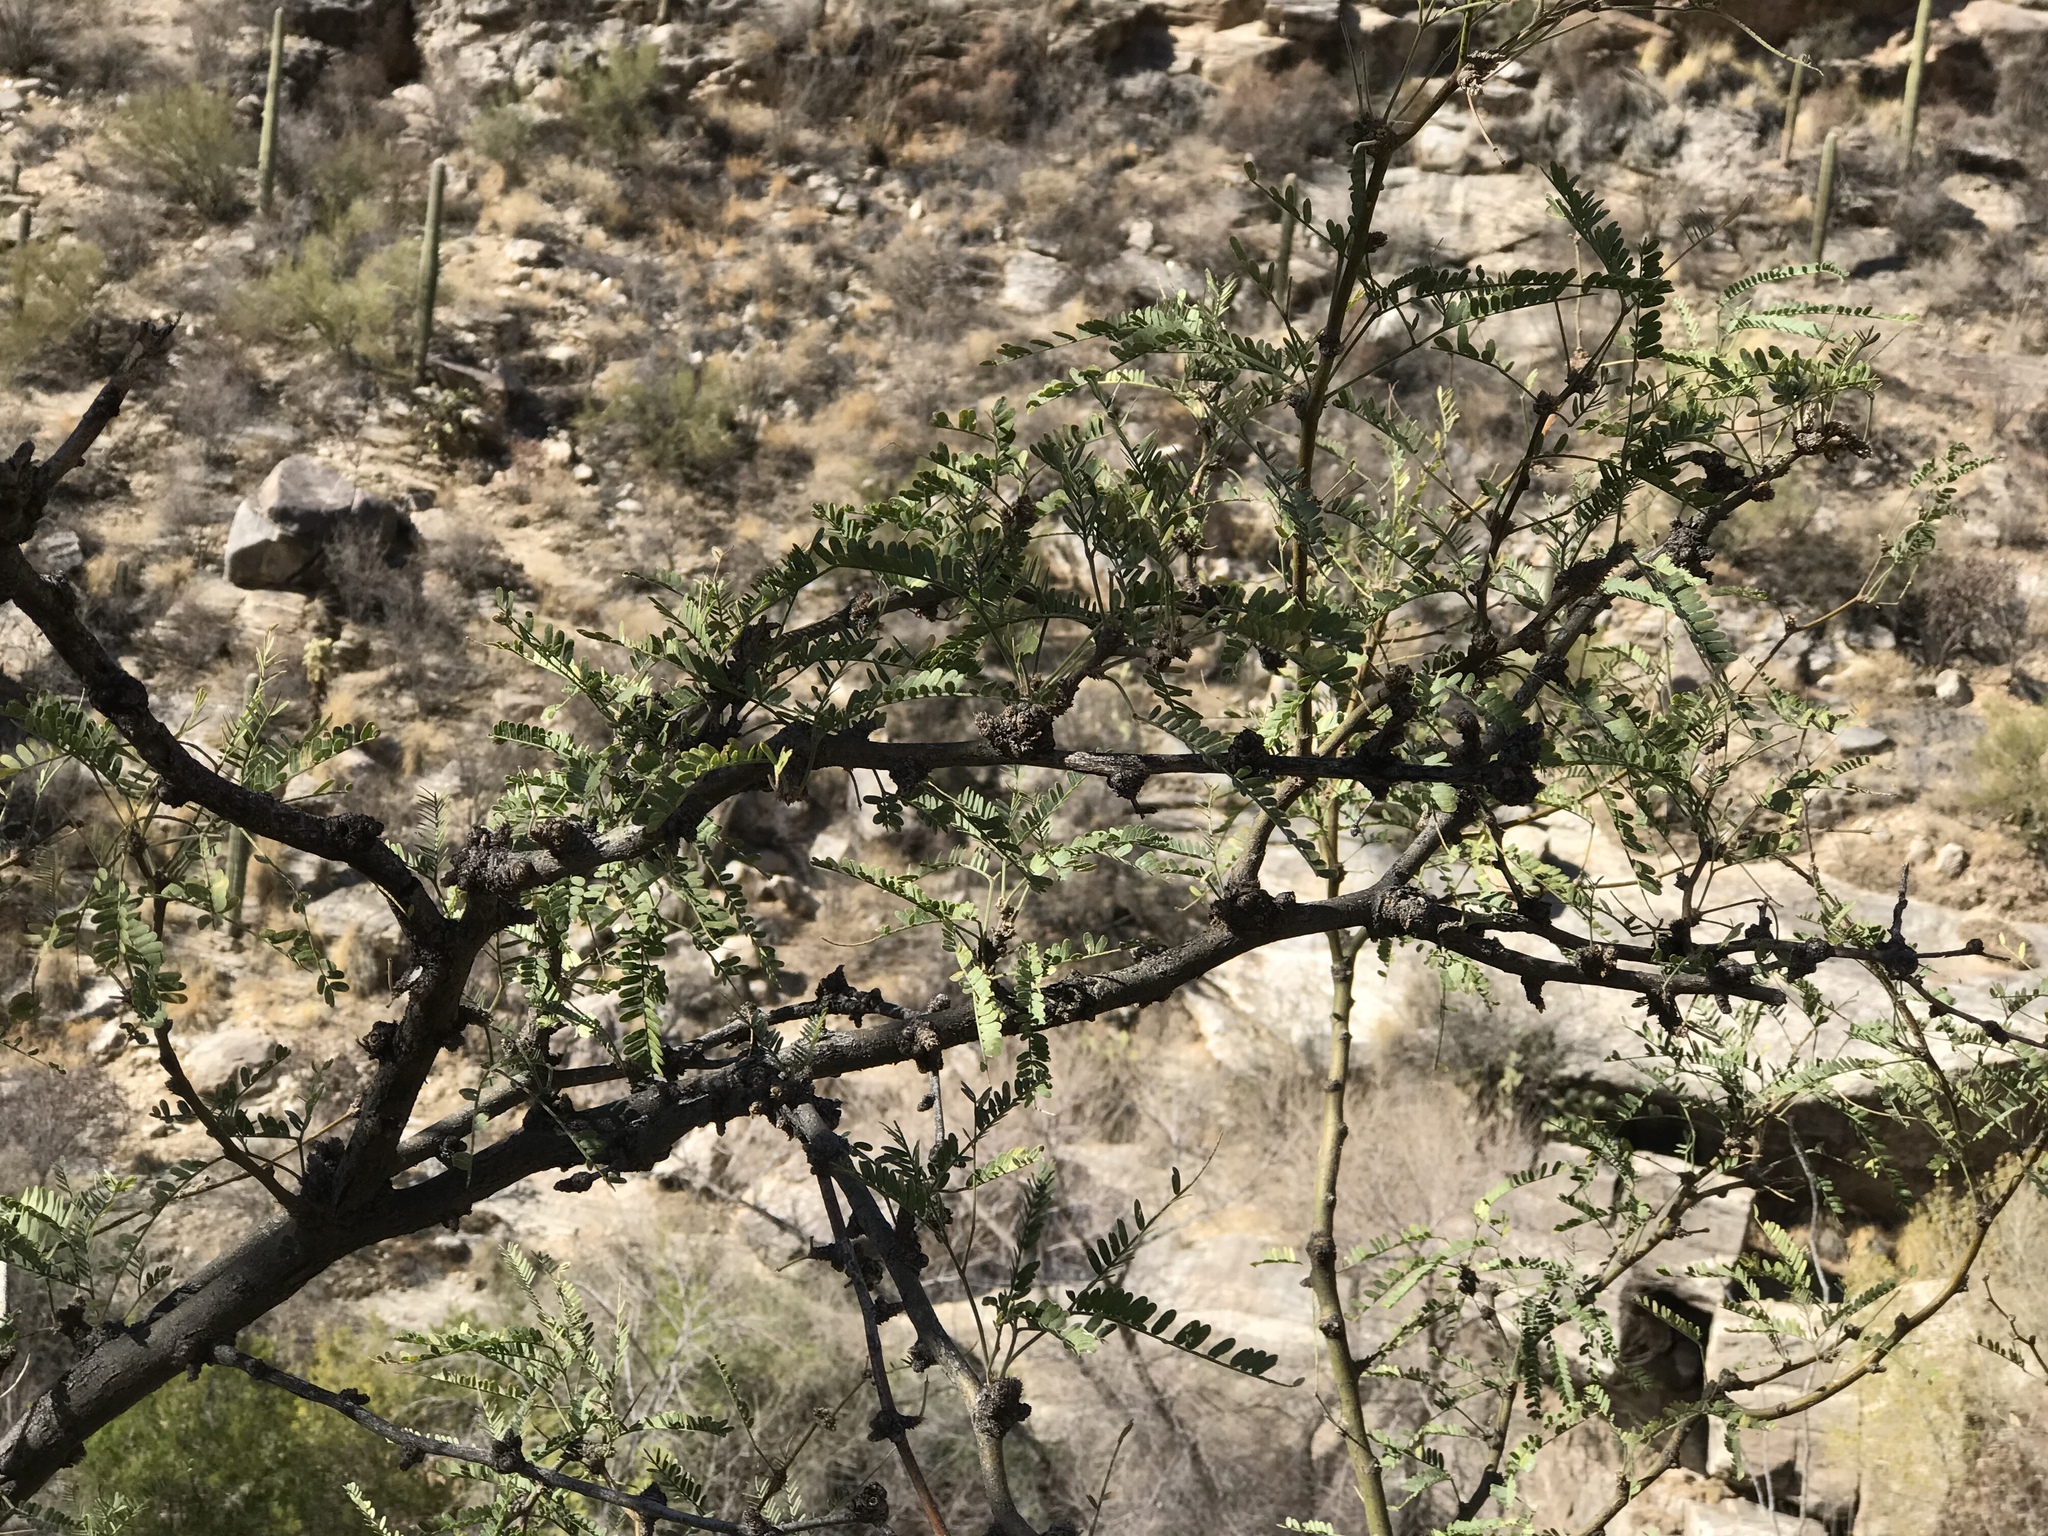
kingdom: Plantae
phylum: Tracheophyta
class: Magnoliopsida
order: Fabales
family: Fabaceae
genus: Prosopis
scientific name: Prosopis velutina
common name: Velvet mesquite
